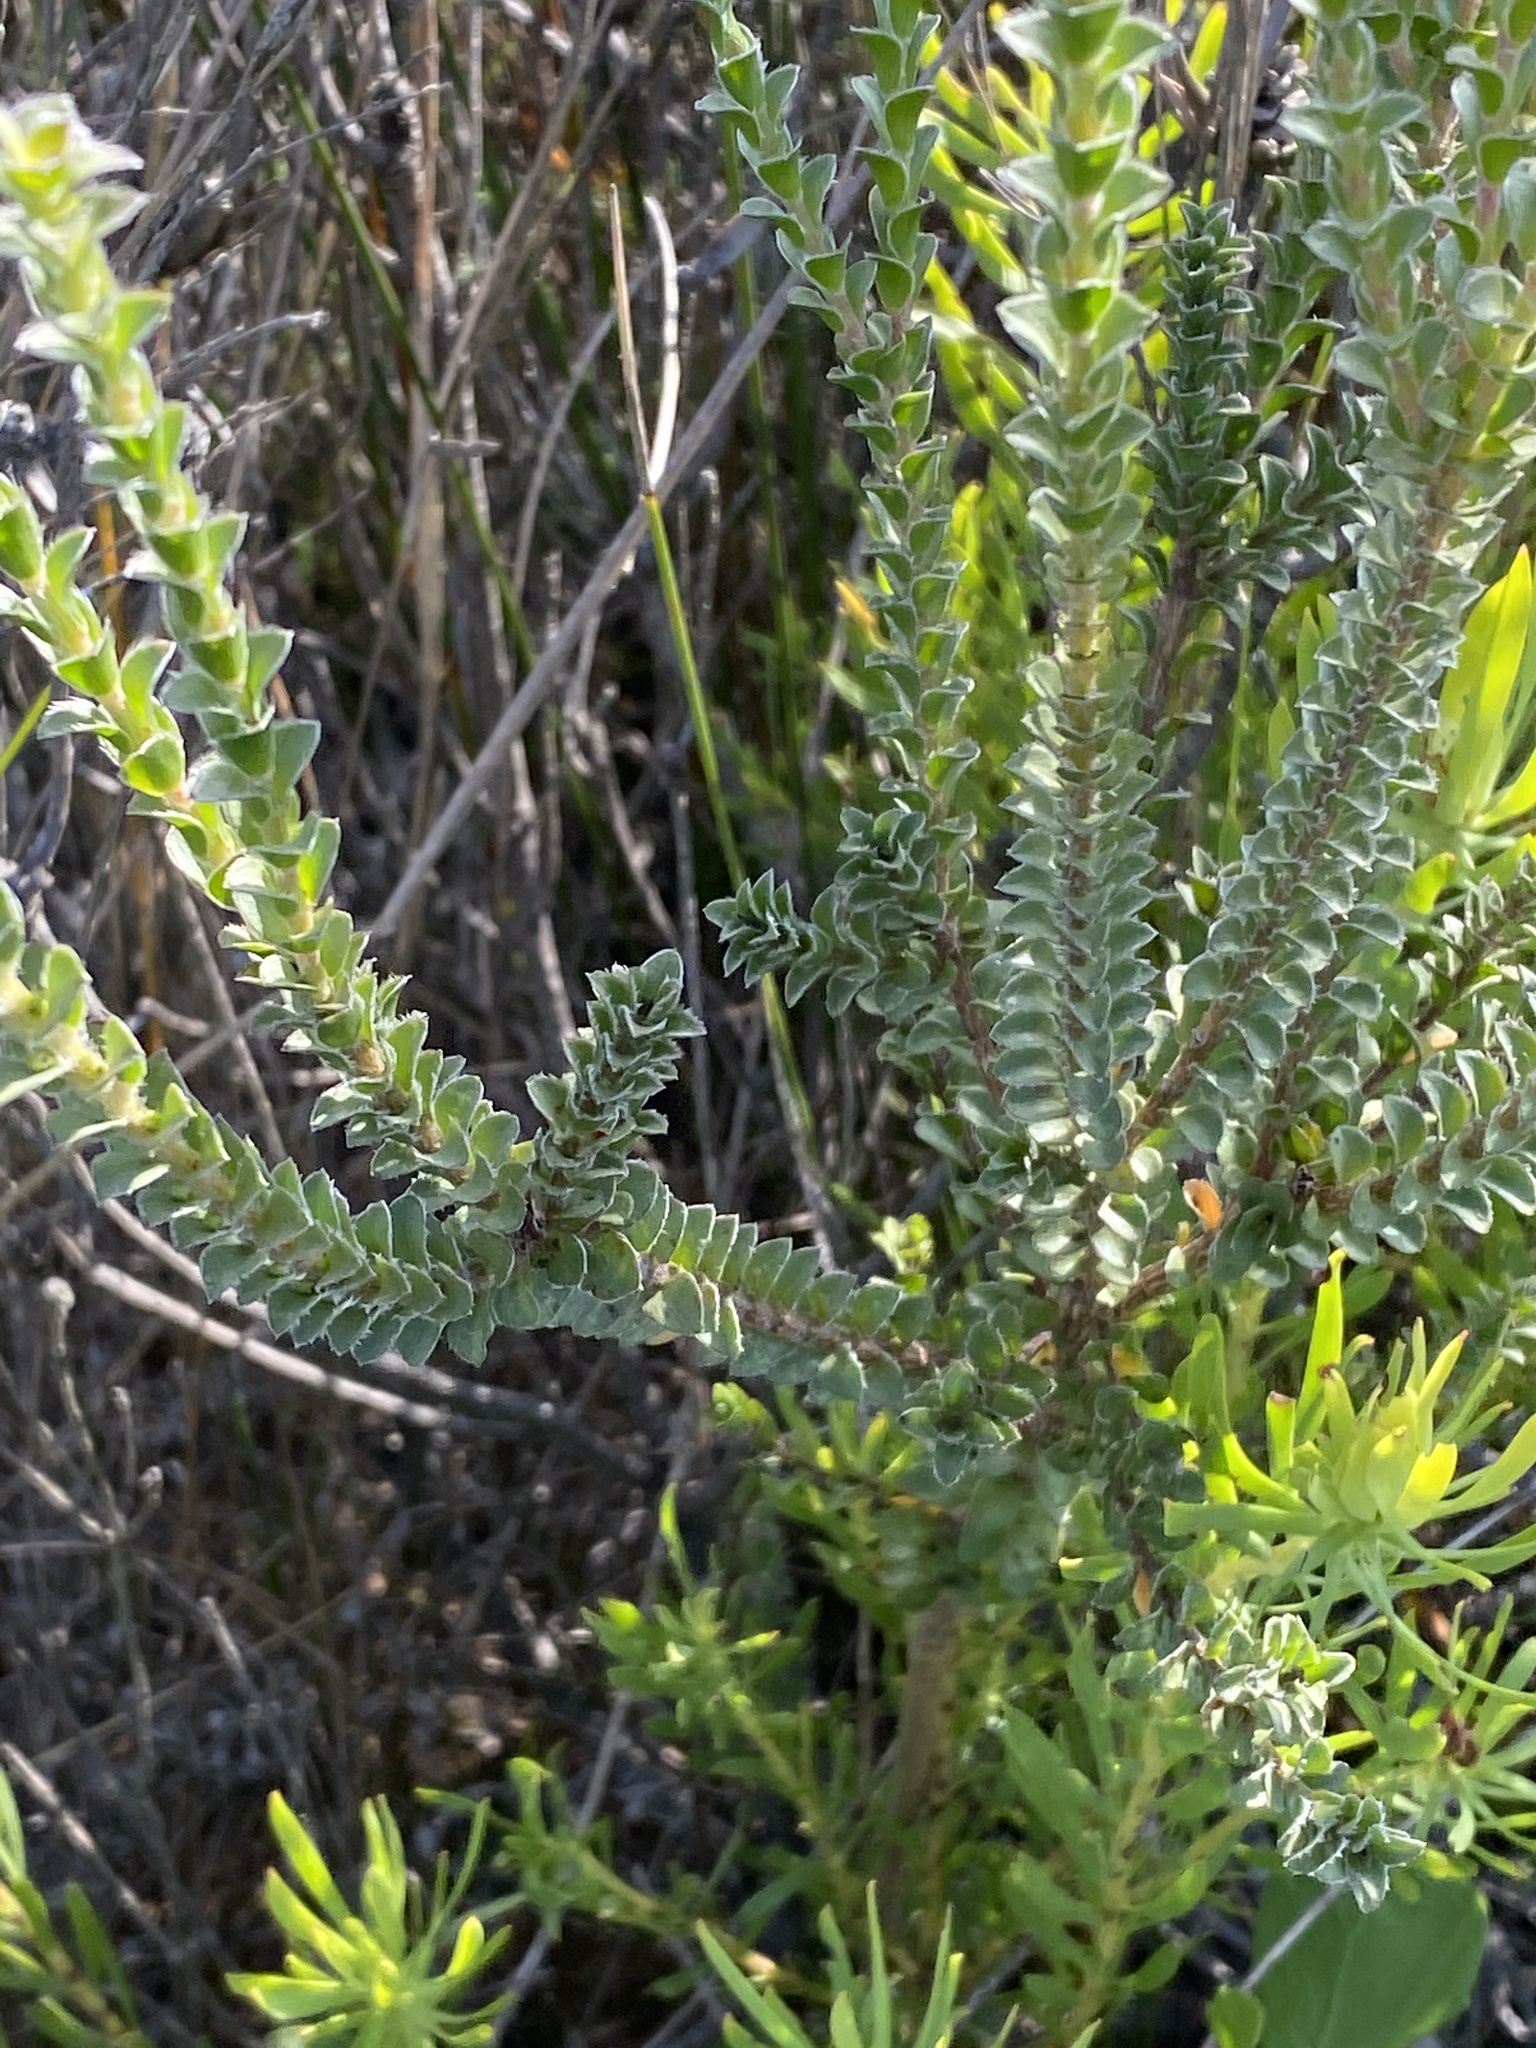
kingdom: Plantae
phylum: Tracheophyta
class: Magnoliopsida
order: Malvales
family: Thymelaeaceae
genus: Struthiola
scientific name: Struthiola argentea
